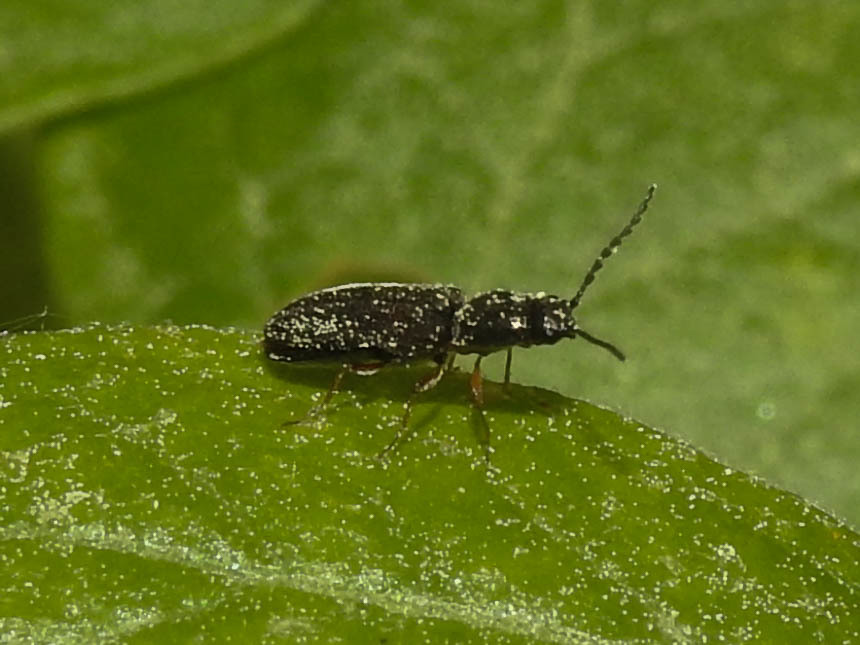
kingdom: Animalia
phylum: Arthropoda
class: Insecta
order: Coleoptera
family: Elateridae
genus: Limonius
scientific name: Limonius quercinus
